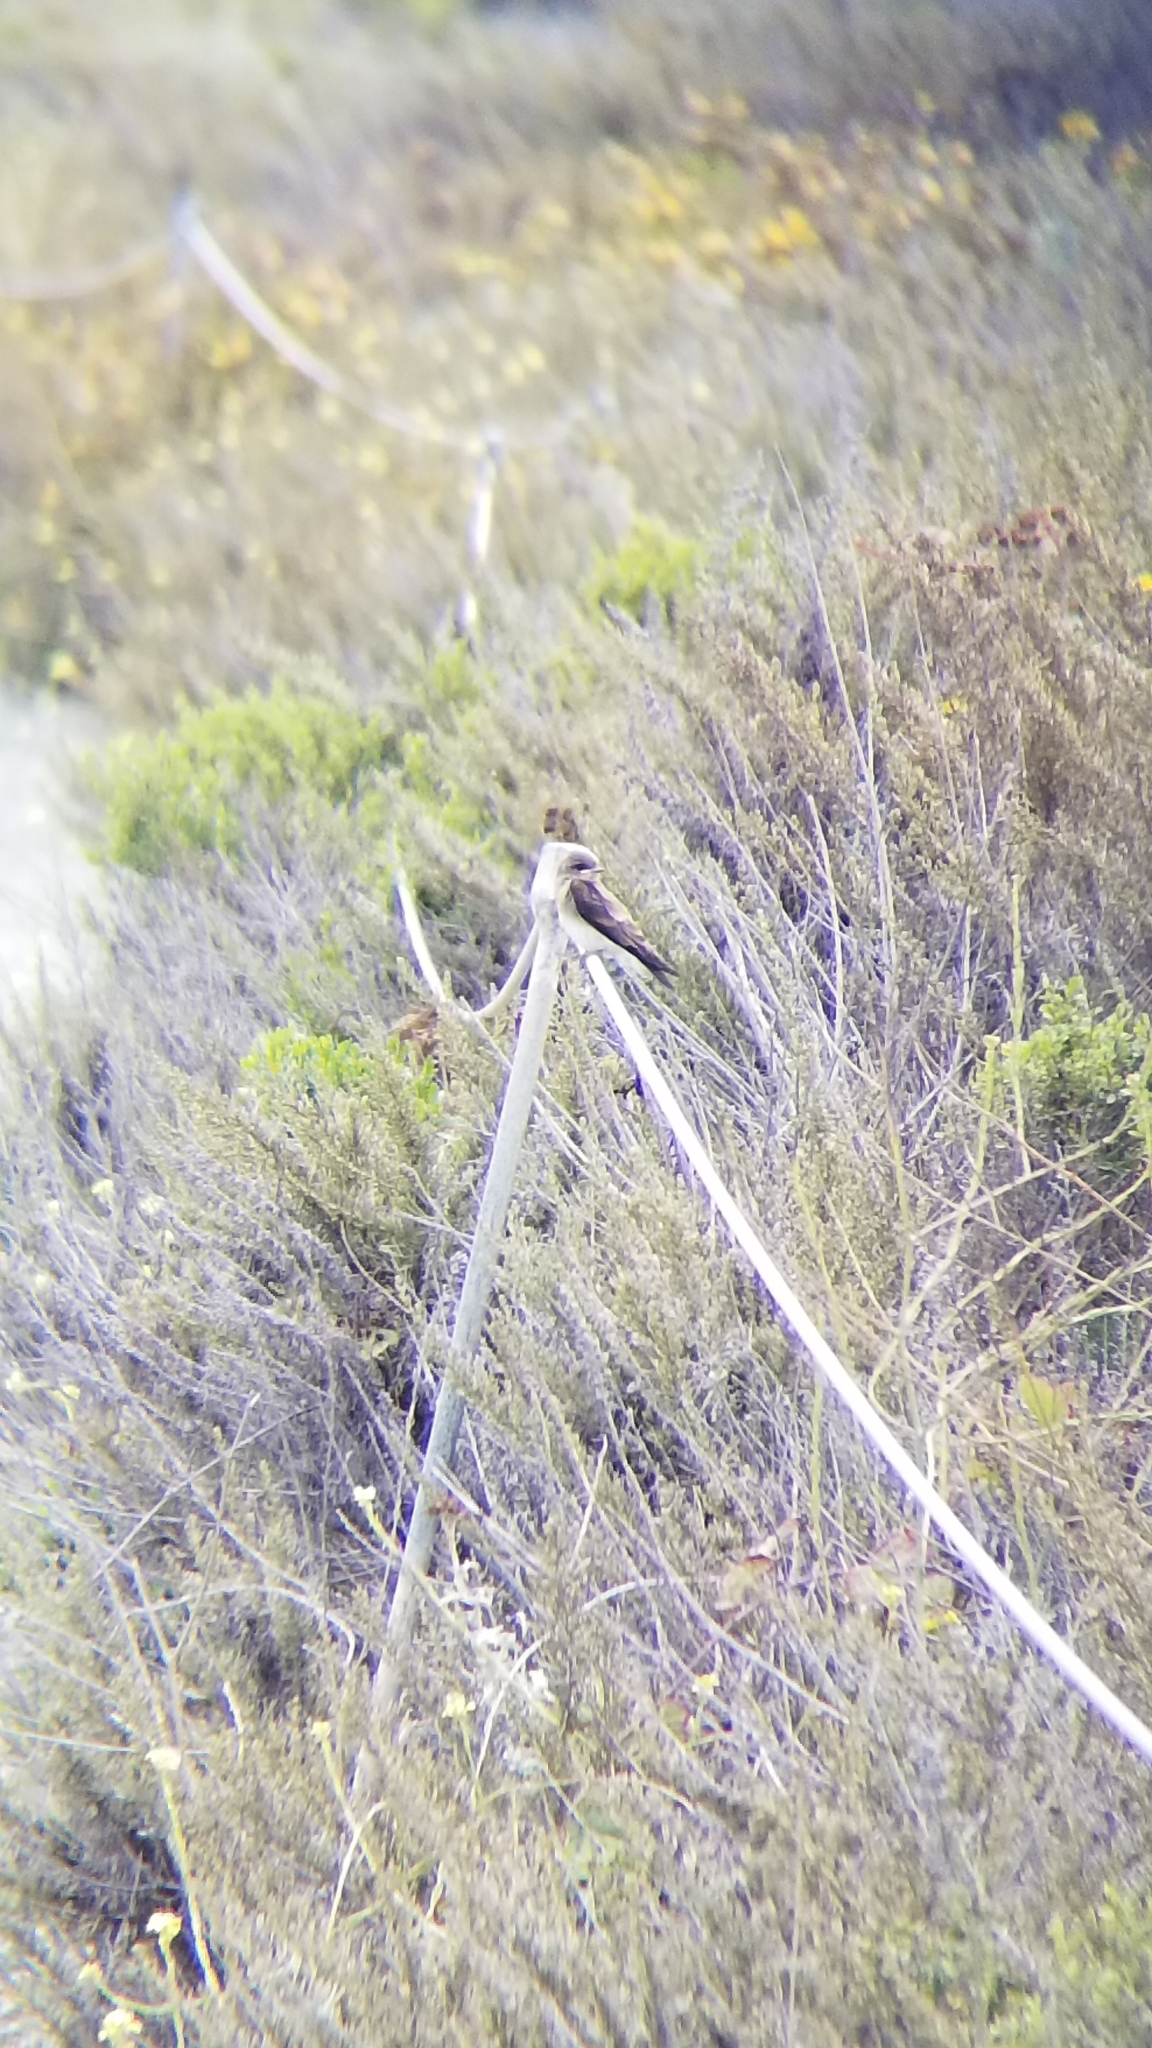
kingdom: Animalia
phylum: Chordata
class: Aves
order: Passeriformes
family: Hirundinidae
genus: Stelgidopteryx
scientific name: Stelgidopteryx serripennis
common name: Northern rough-winged swallow
